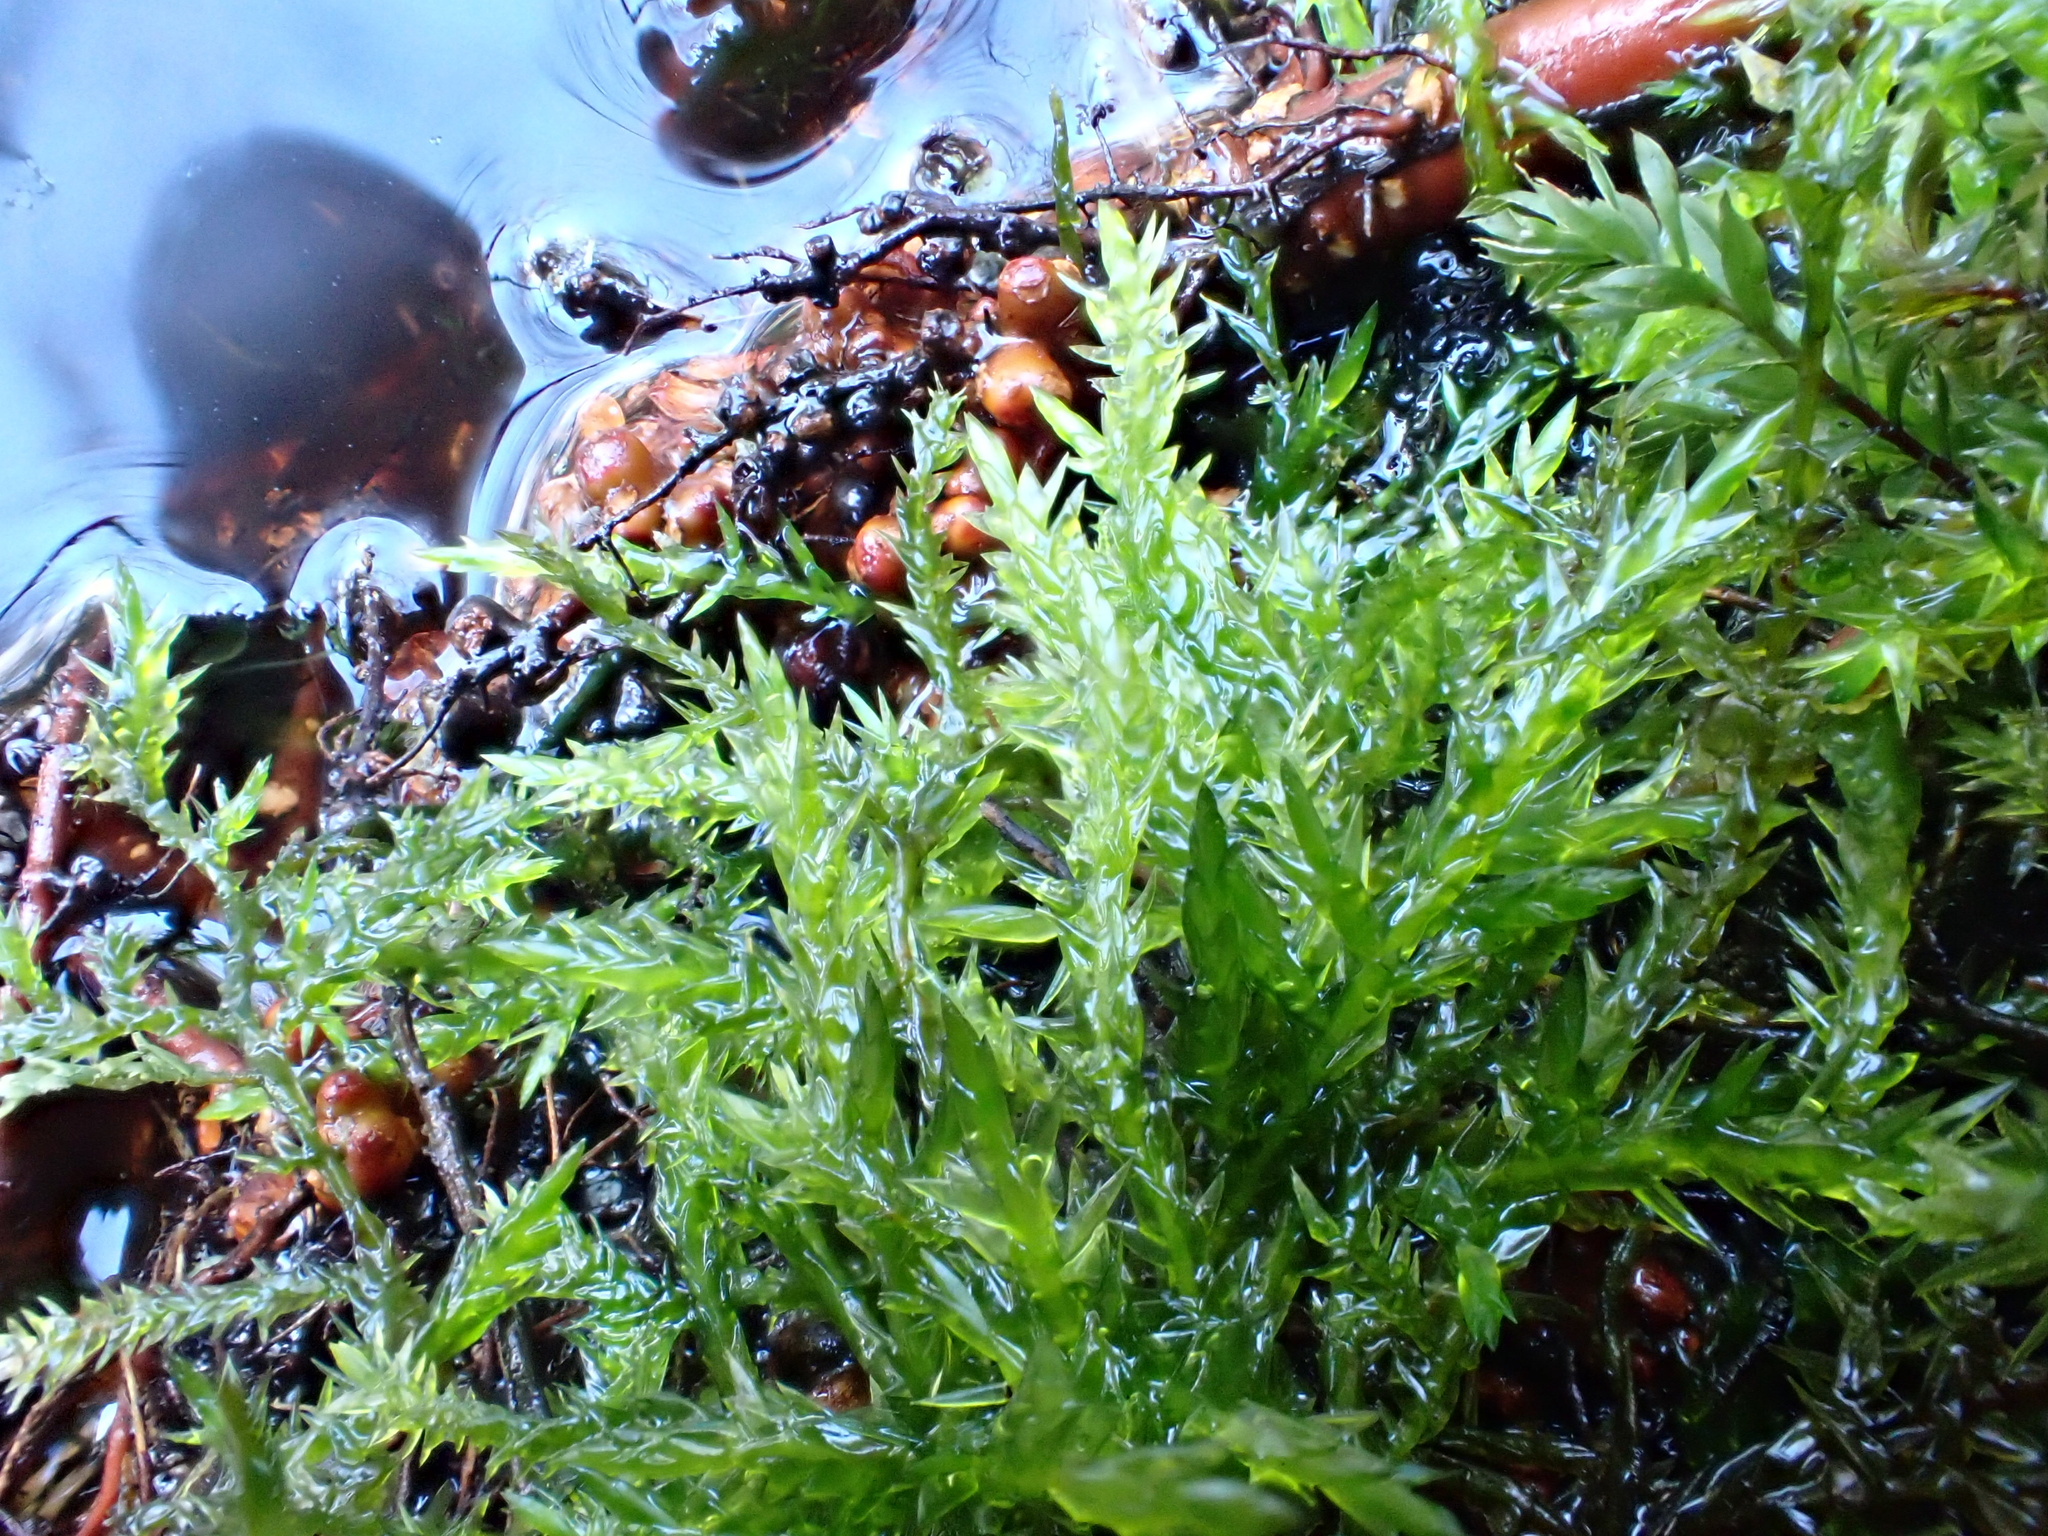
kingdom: Plantae
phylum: Bryophyta
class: Bryopsida
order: Hypnales
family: Pylaisiaceae
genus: Calliergonella
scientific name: Calliergonella cuspidata
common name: Common large wetland moss
